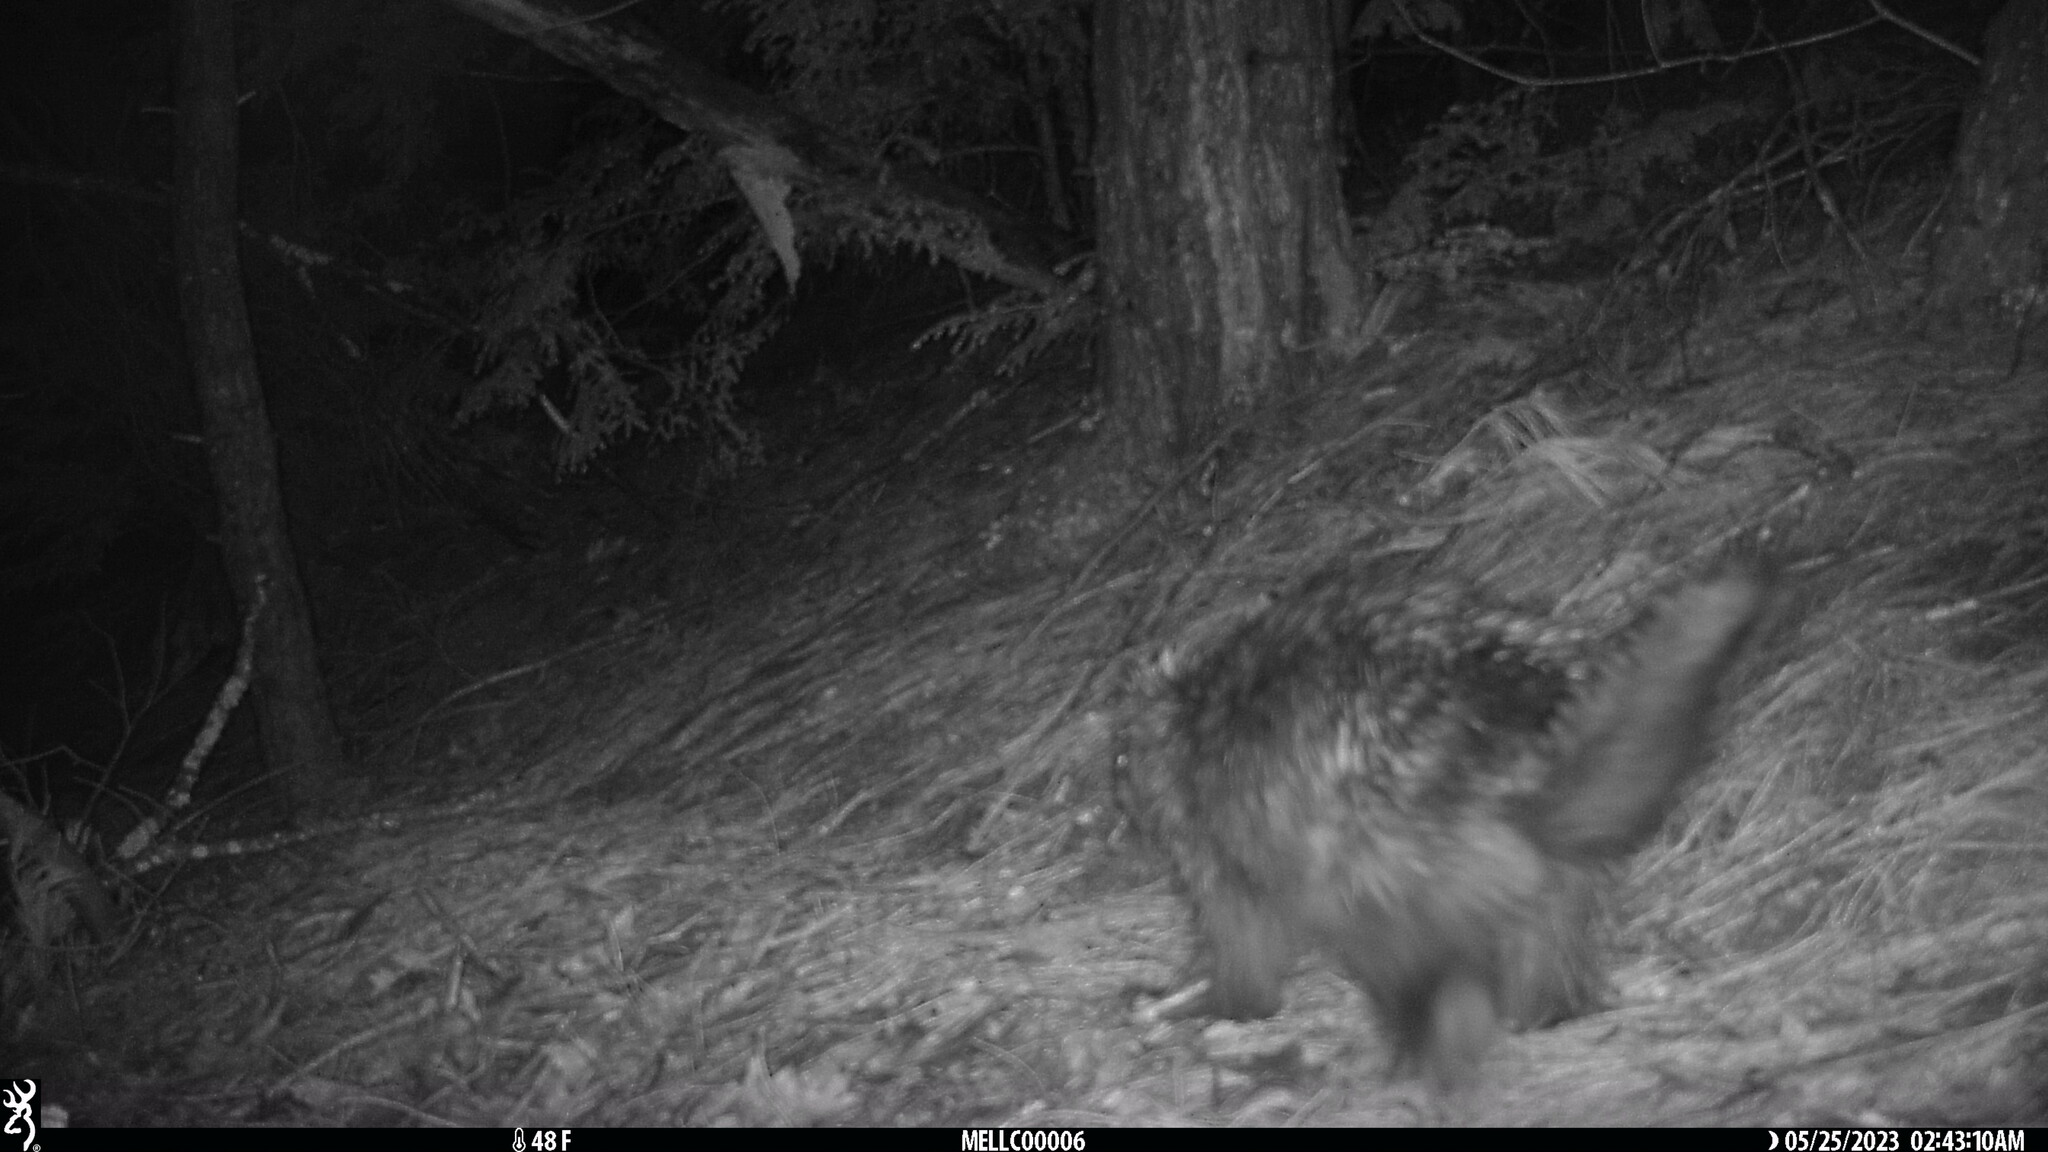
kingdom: Animalia
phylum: Chordata
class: Mammalia
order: Rodentia
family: Erethizontidae
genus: Erethizon
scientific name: Erethizon dorsatus
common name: North american porcupine
